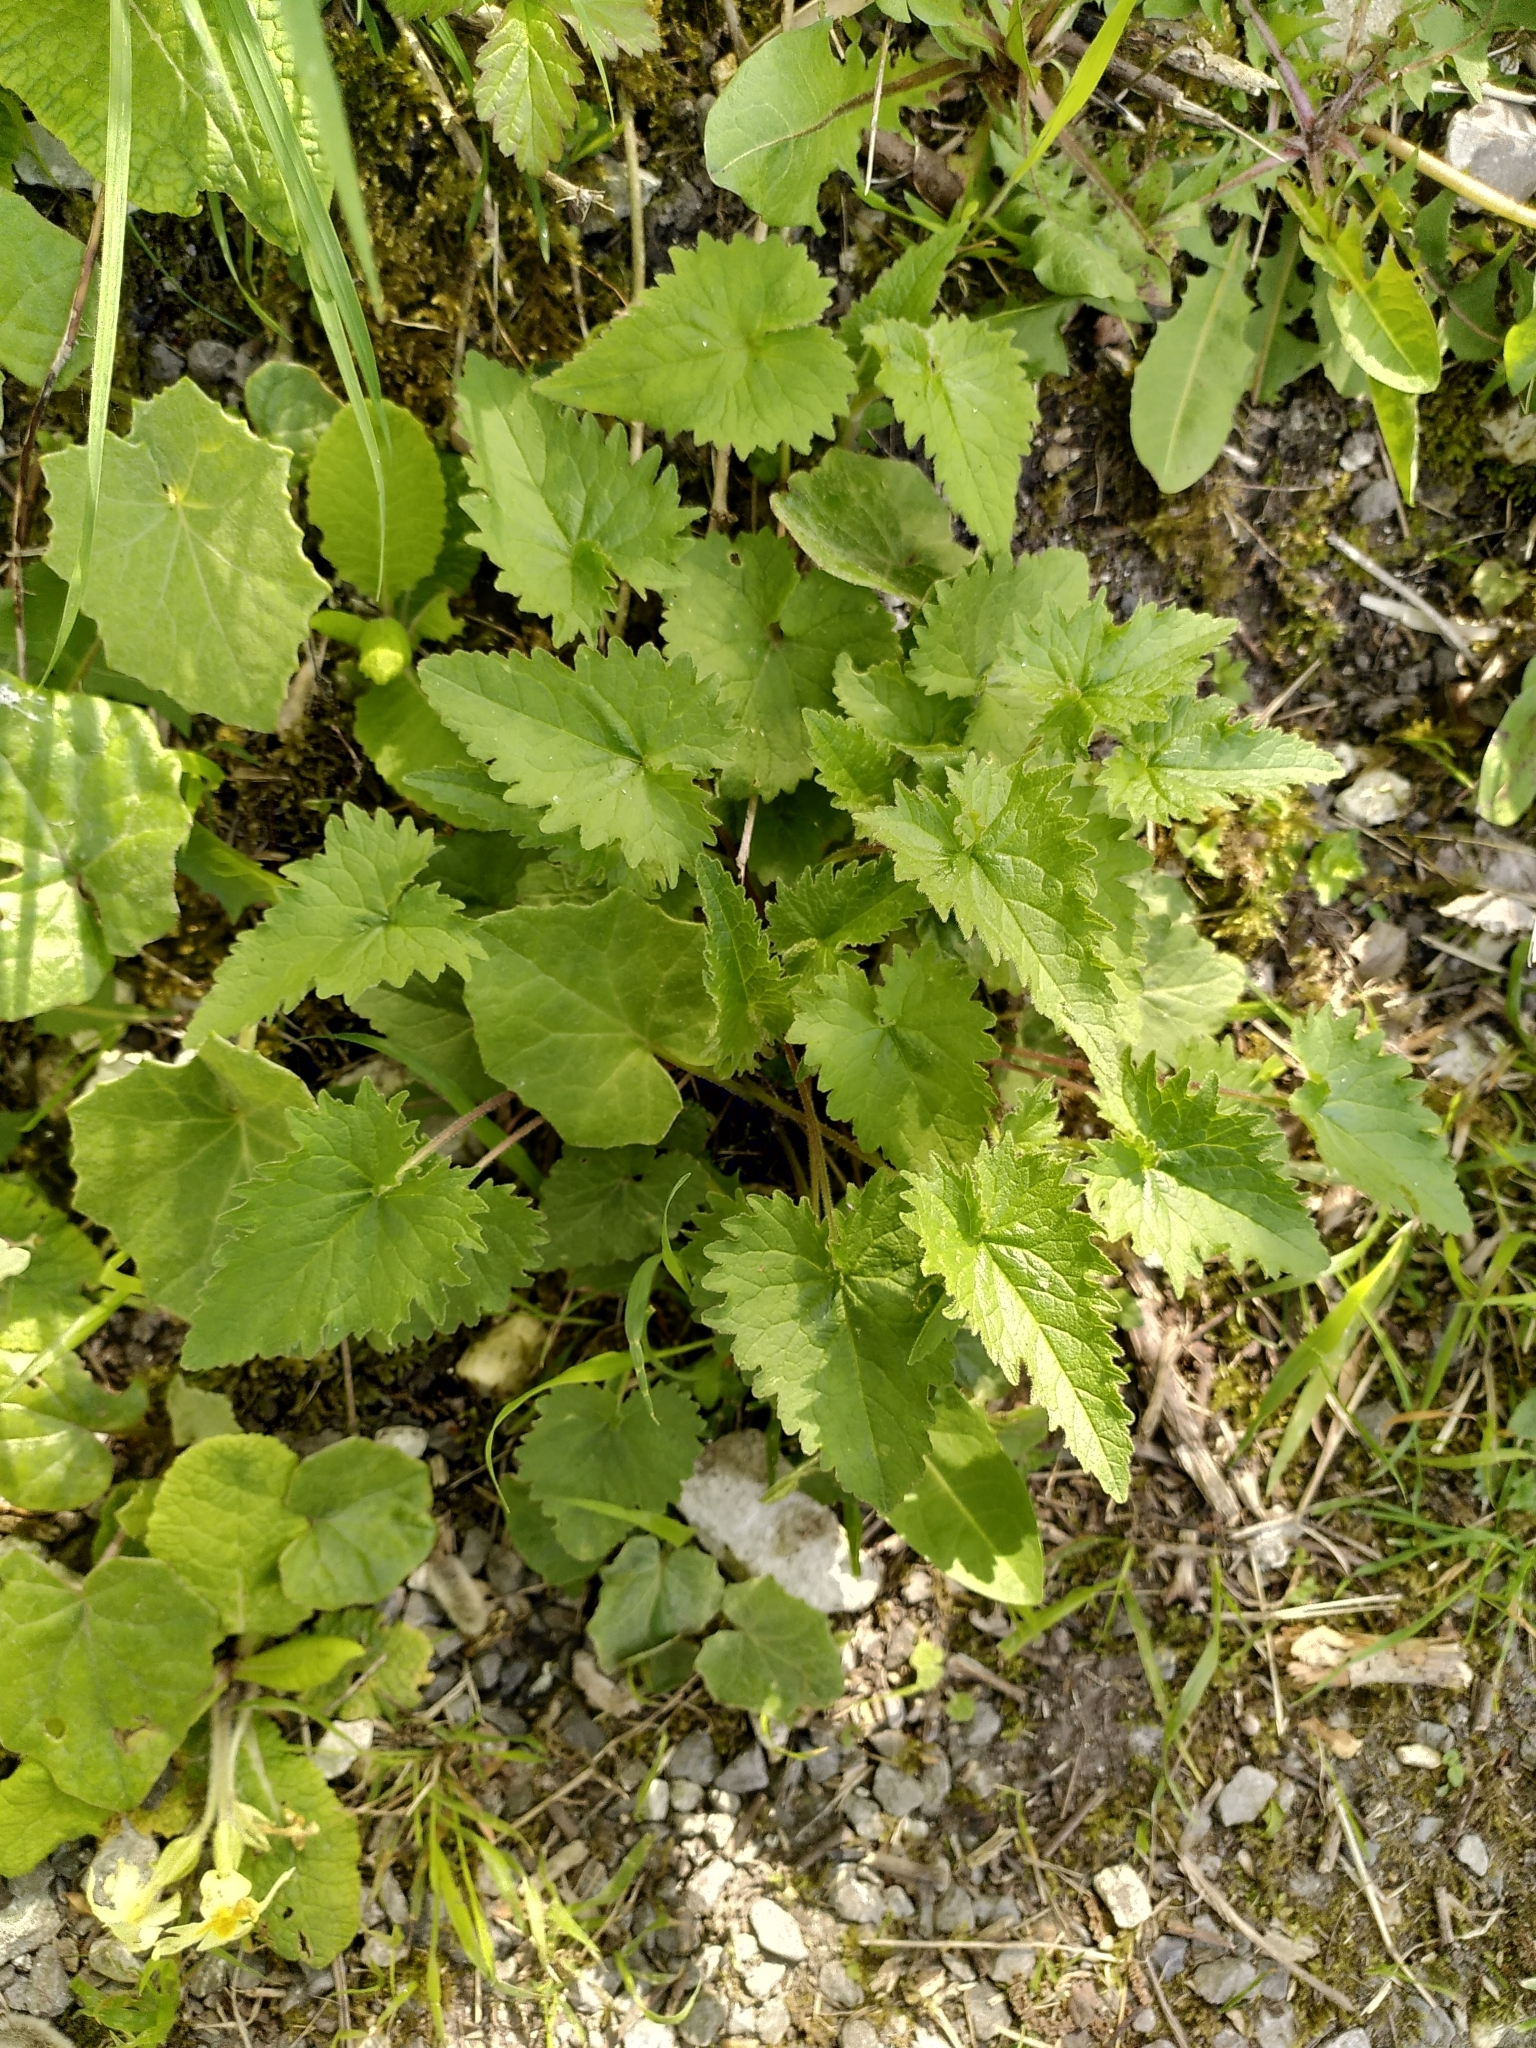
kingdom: Plantae
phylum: Tracheophyta
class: Magnoliopsida
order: Asterales
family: Campanulaceae
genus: Campanula
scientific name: Campanula trachelium
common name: Nettle-leaved bellflower
